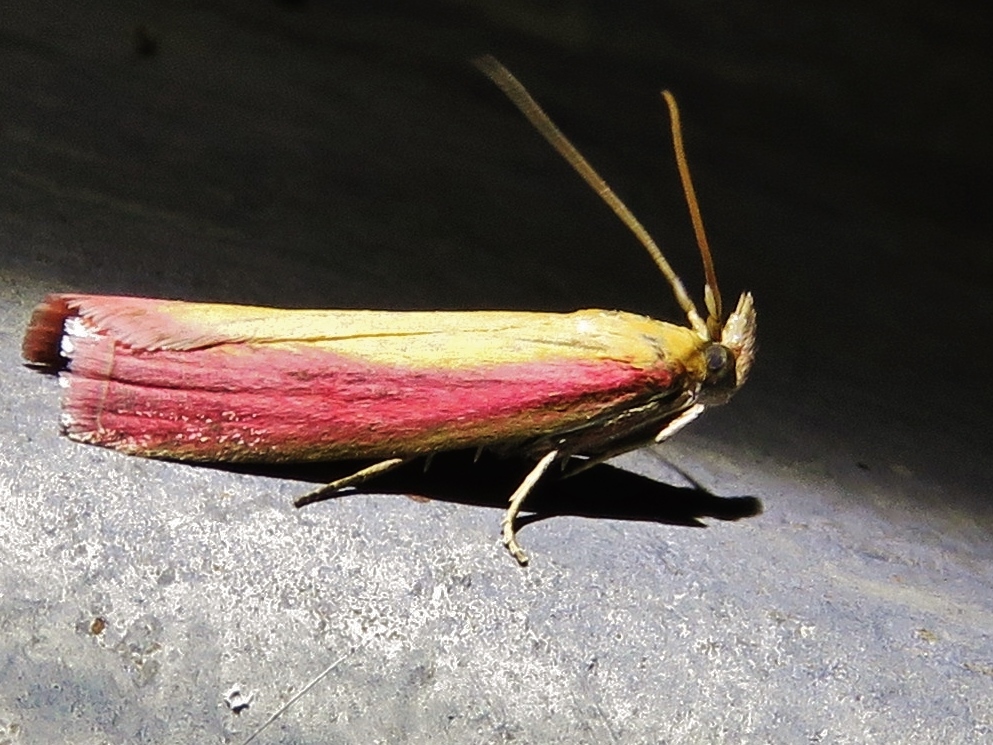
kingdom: Animalia
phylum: Arthropoda
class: Insecta
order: Lepidoptera
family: Pyralidae
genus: Oncocera
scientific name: Oncocera semirubella
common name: Rosy-striped knot-horn
